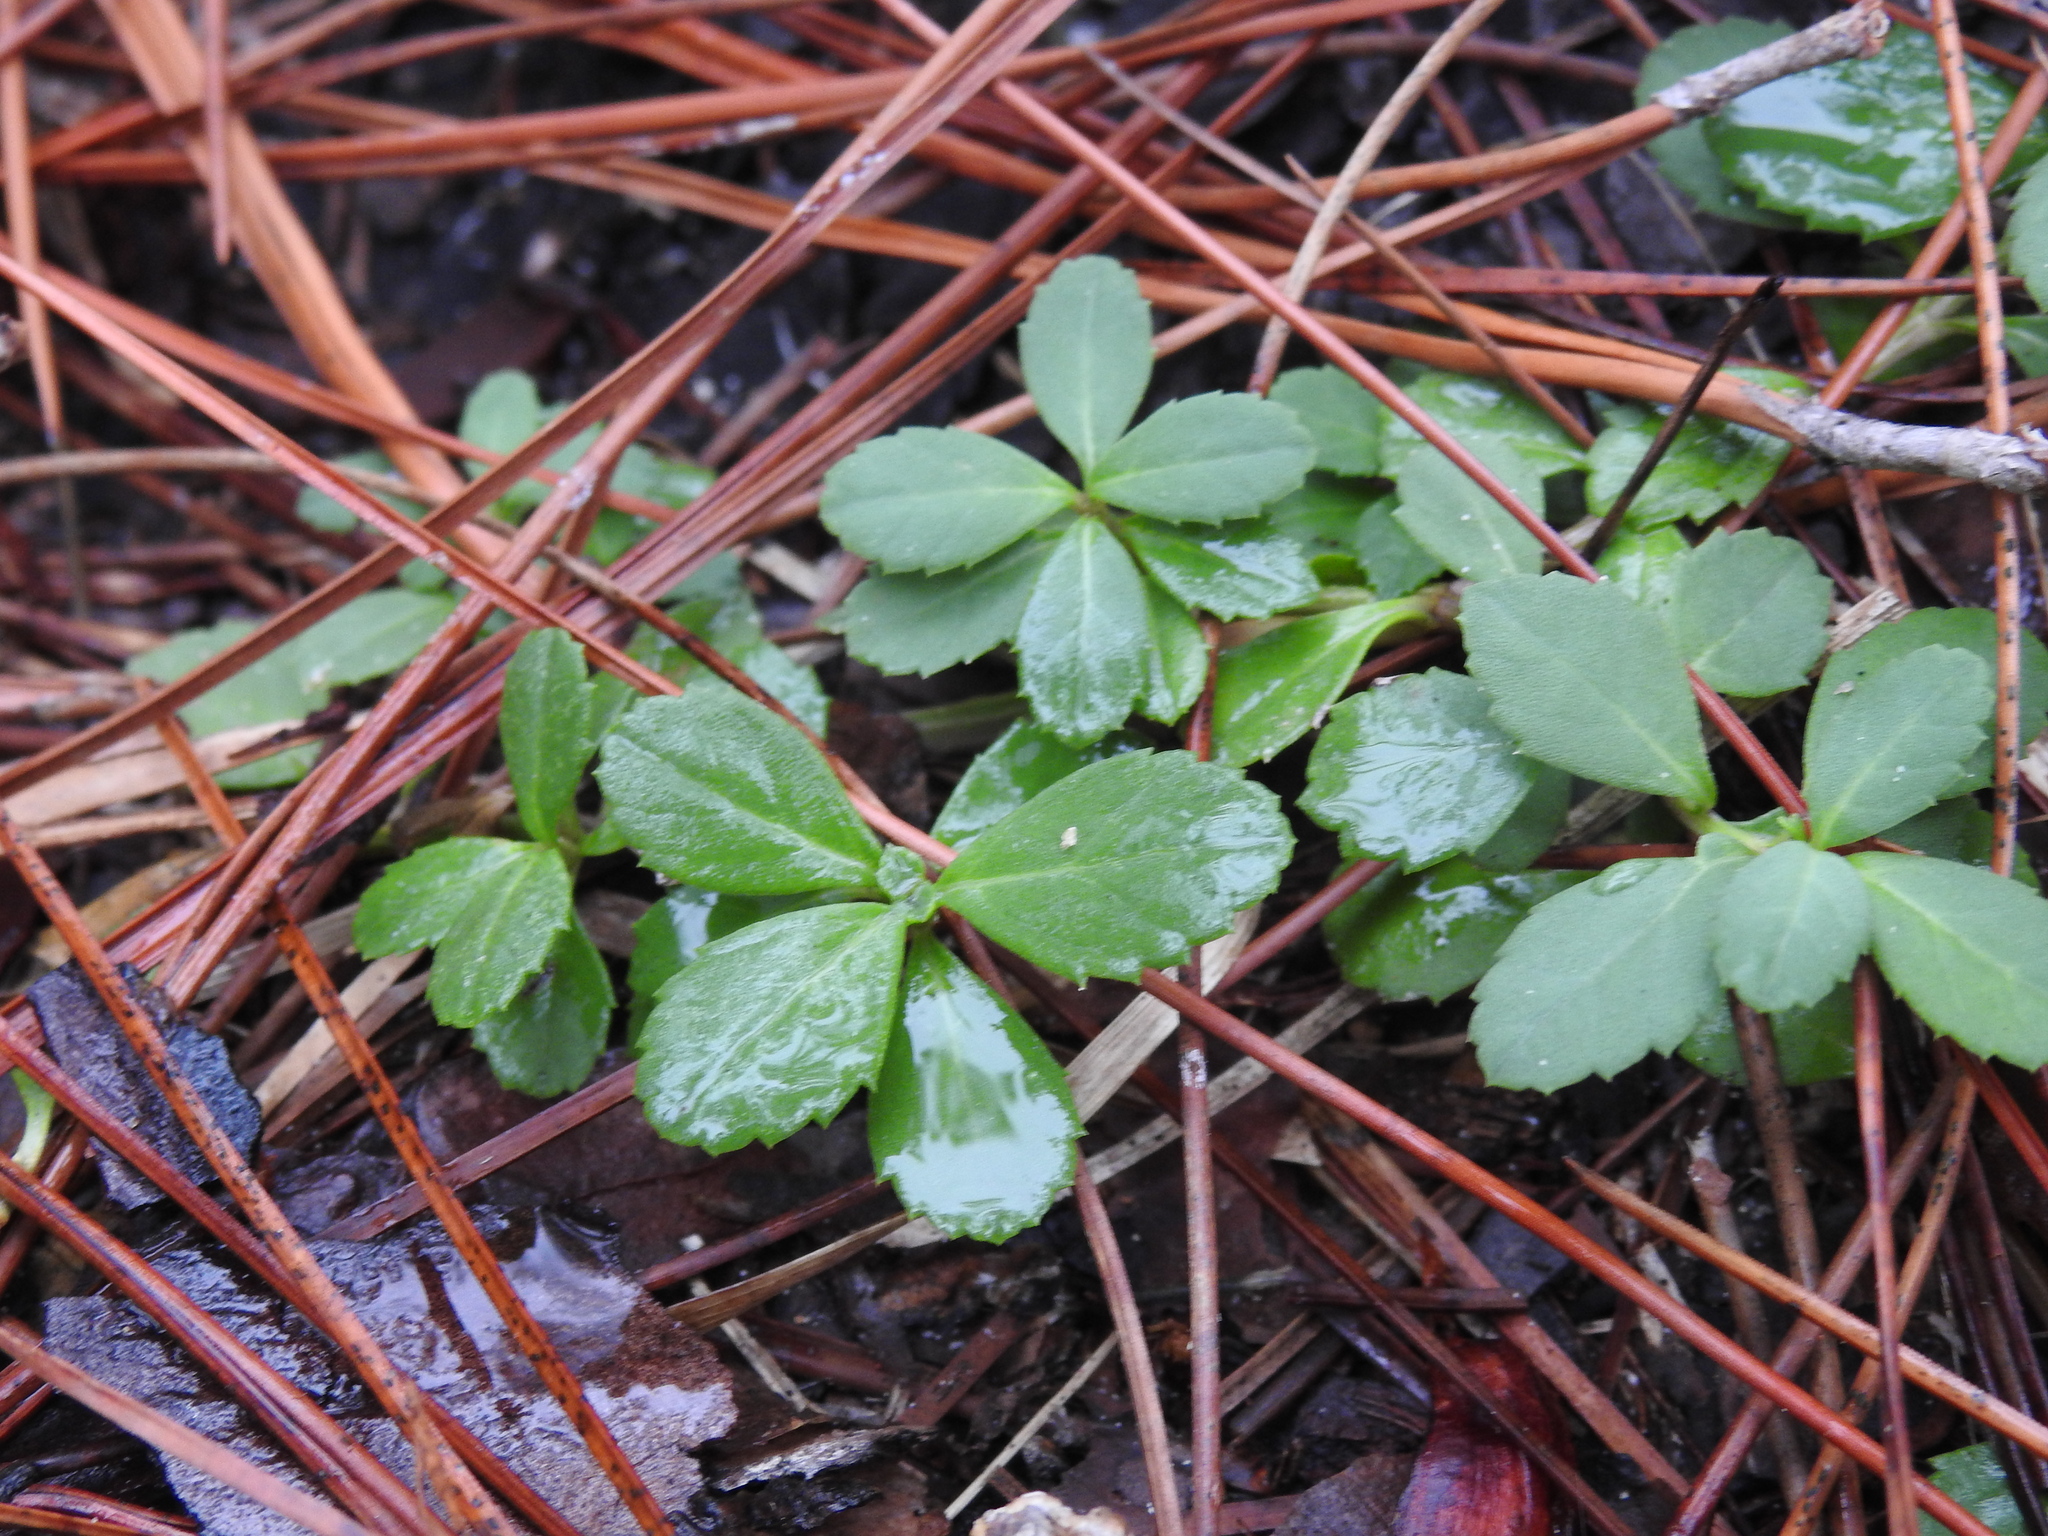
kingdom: Plantae
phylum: Tracheophyta
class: Magnoliopsida
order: Lamiales
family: Verbenaceae
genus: Phyla
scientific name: Phyla nodiflora
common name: Frogfruit
